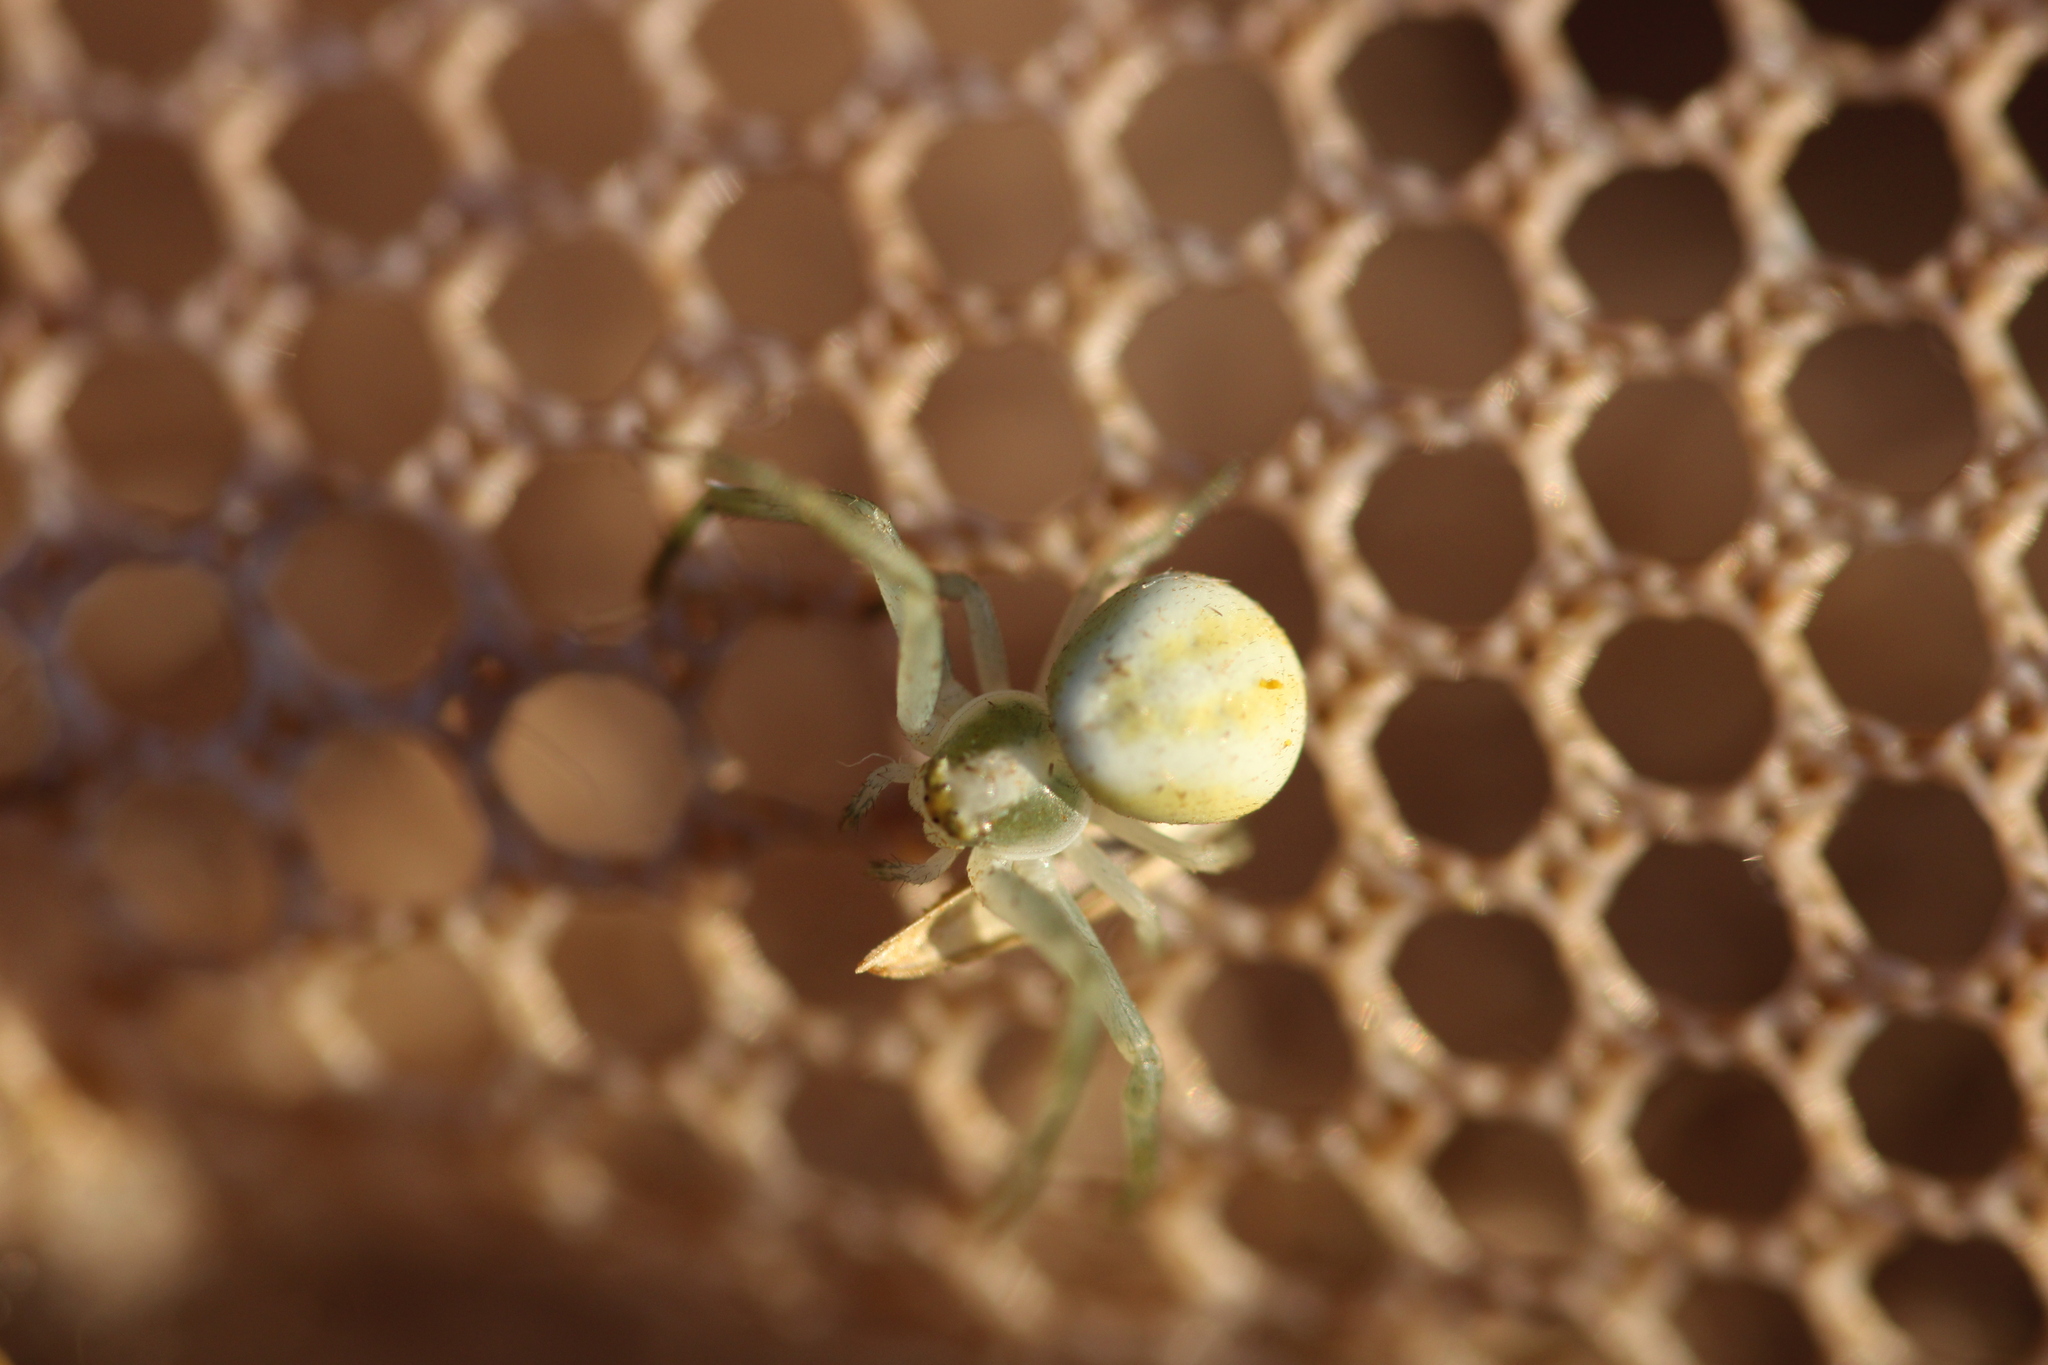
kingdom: Animalia
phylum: Arthropoda
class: Arachnida
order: Araneae
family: Thomisidae
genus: Misumena
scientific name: Misumena vatia
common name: Goldenrod crab spider
